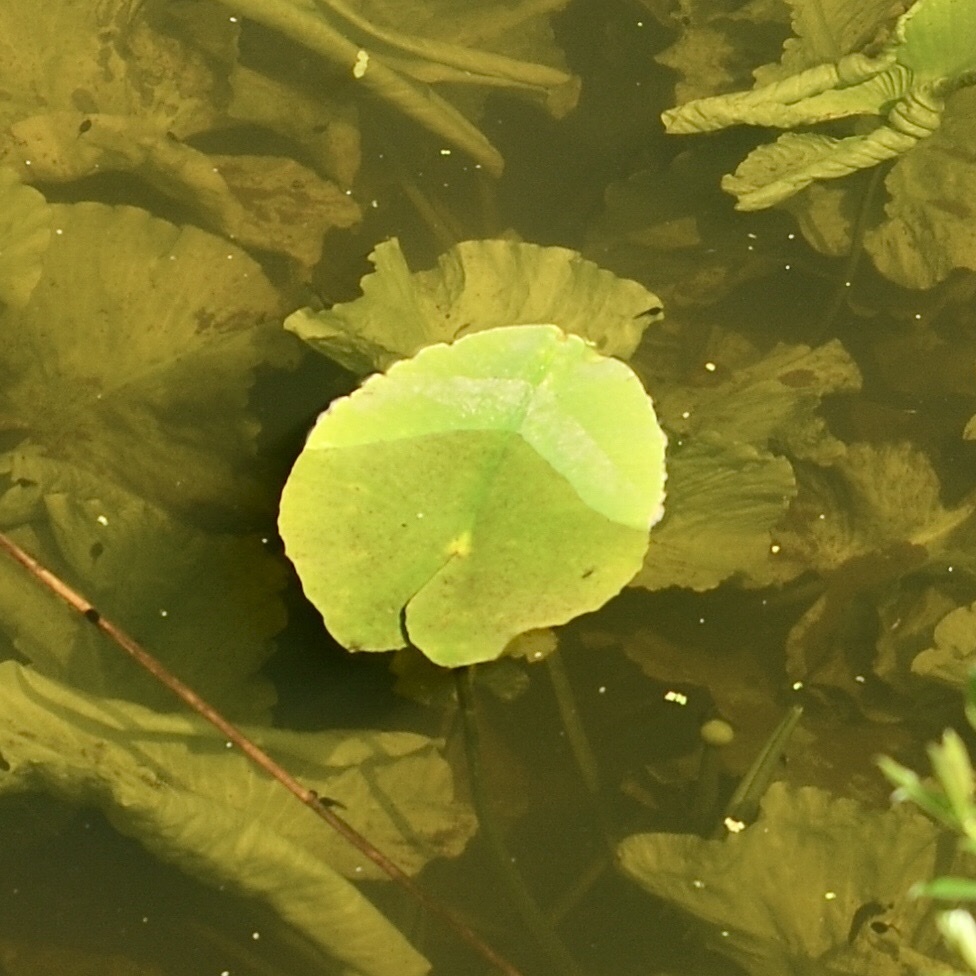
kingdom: Plantae
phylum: Tracheophyta
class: Magnoliopsida
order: Nymphaeales
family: Nymphaeaceae
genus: Nuphar
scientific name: Nuphar lutea
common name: Yellow water-lily
